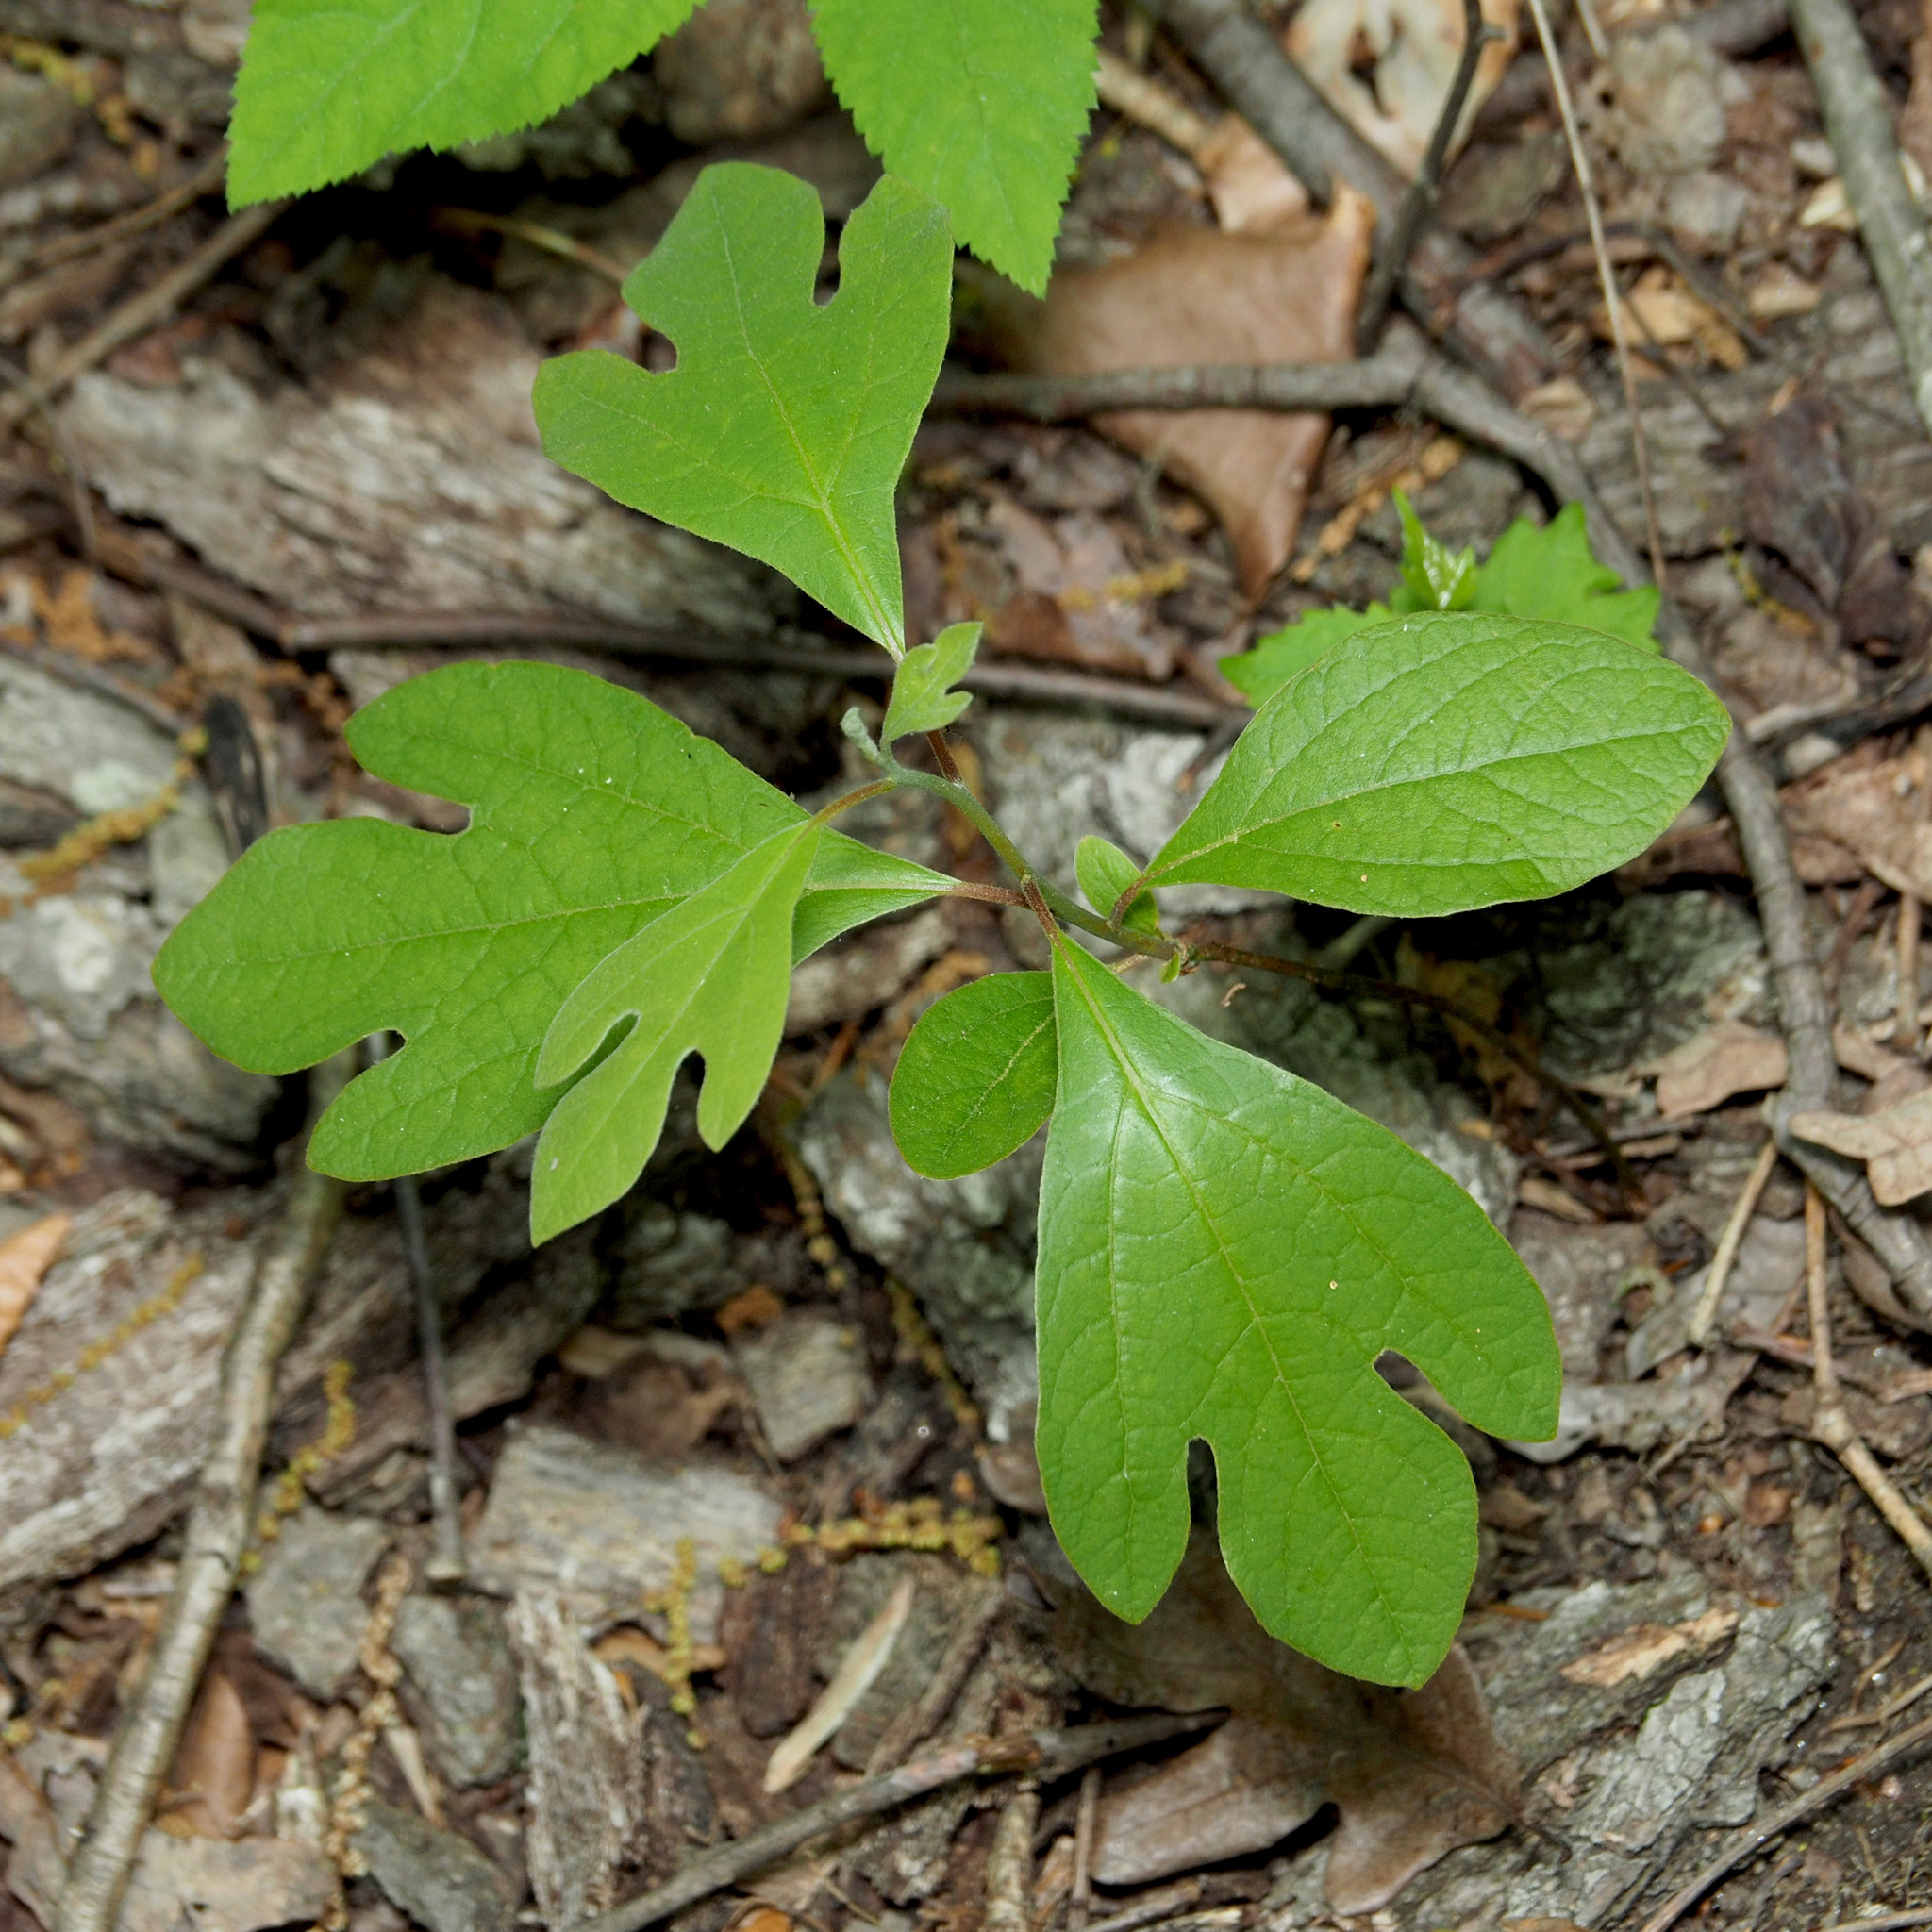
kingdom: Plantae
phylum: Tracheophyta
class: Magnoliopsida
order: Laurales
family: Lauraceae
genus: Sassafras
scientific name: Sassafras albidum
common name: Sassafras
